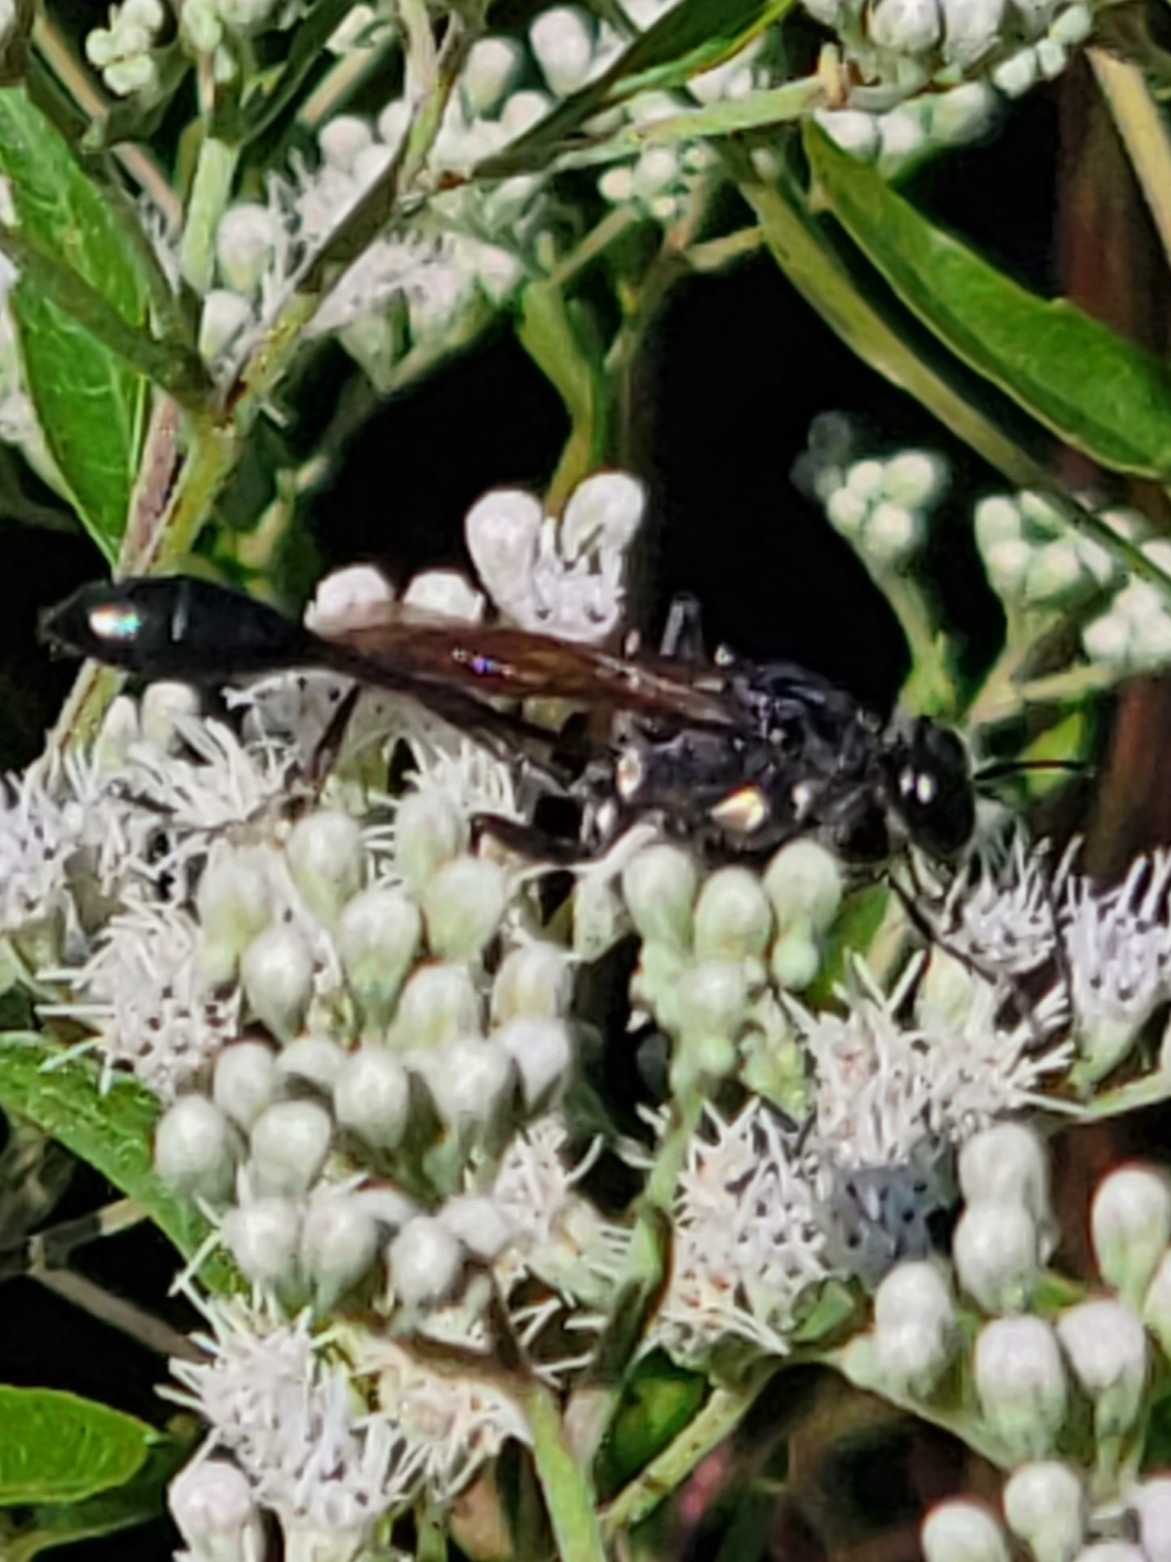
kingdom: Animalia
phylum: Arthropoda
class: Insecta
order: Hymenoptera
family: Sphecidae
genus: Eremnophila
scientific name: Eremnophila aureonotata
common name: Gold-marked thread-waisted wasp
